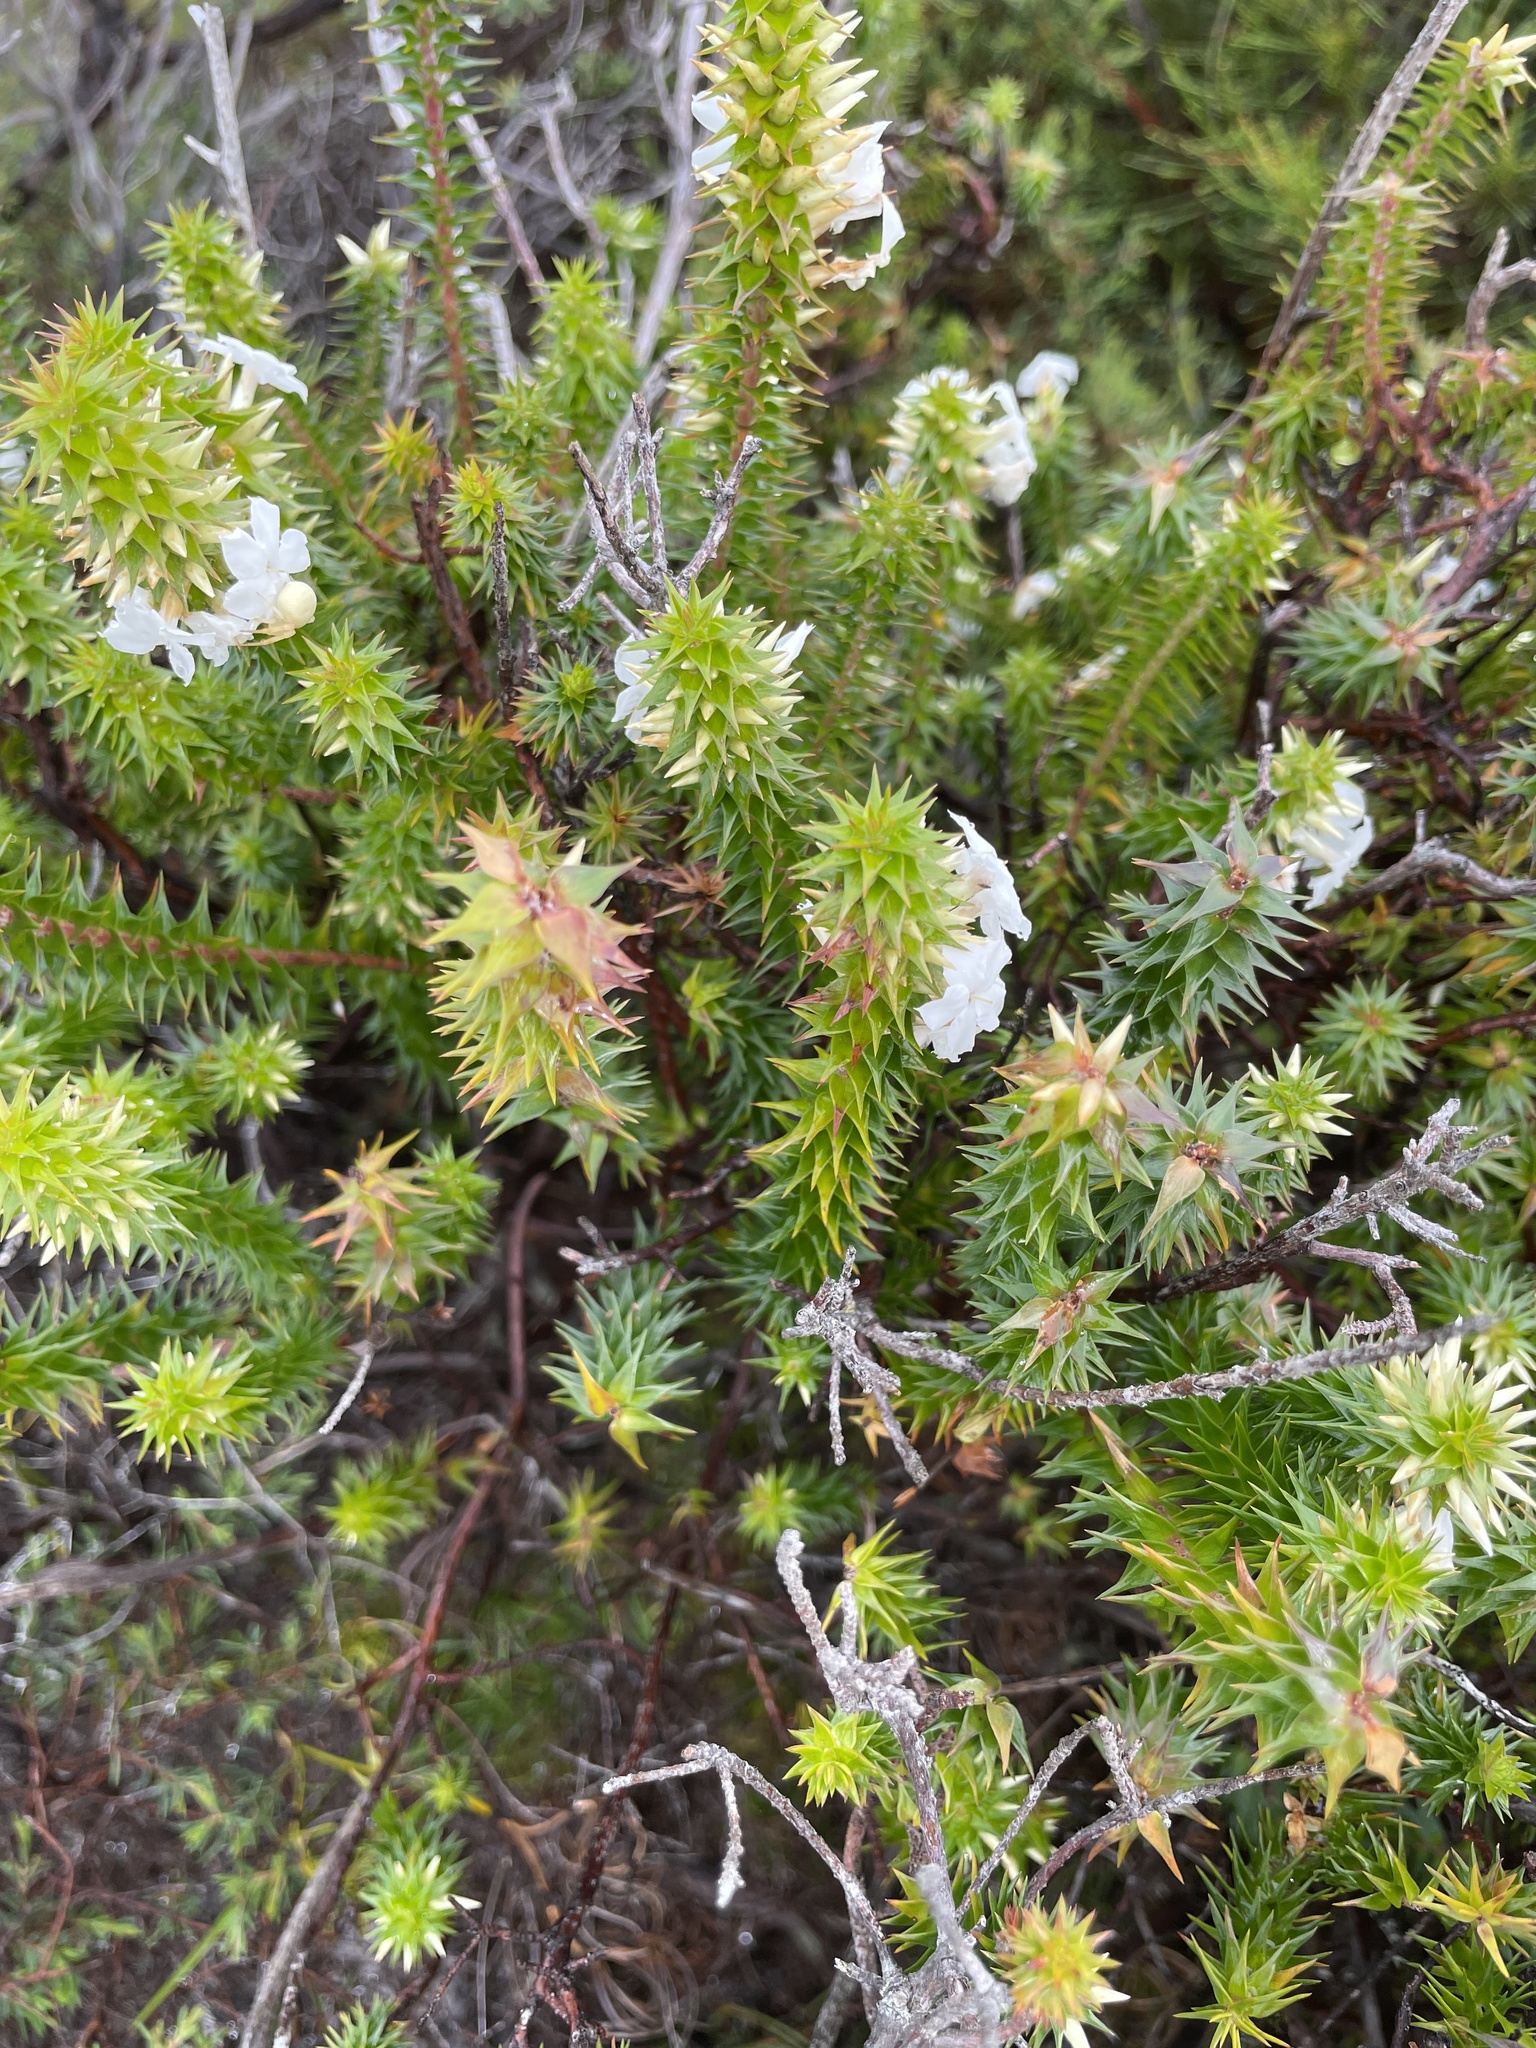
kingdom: Plantae
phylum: Tracheophyta
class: Magnoliopsida
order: Ericales
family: Ericaceae
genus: Woollsia
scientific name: Woollsia pungens
